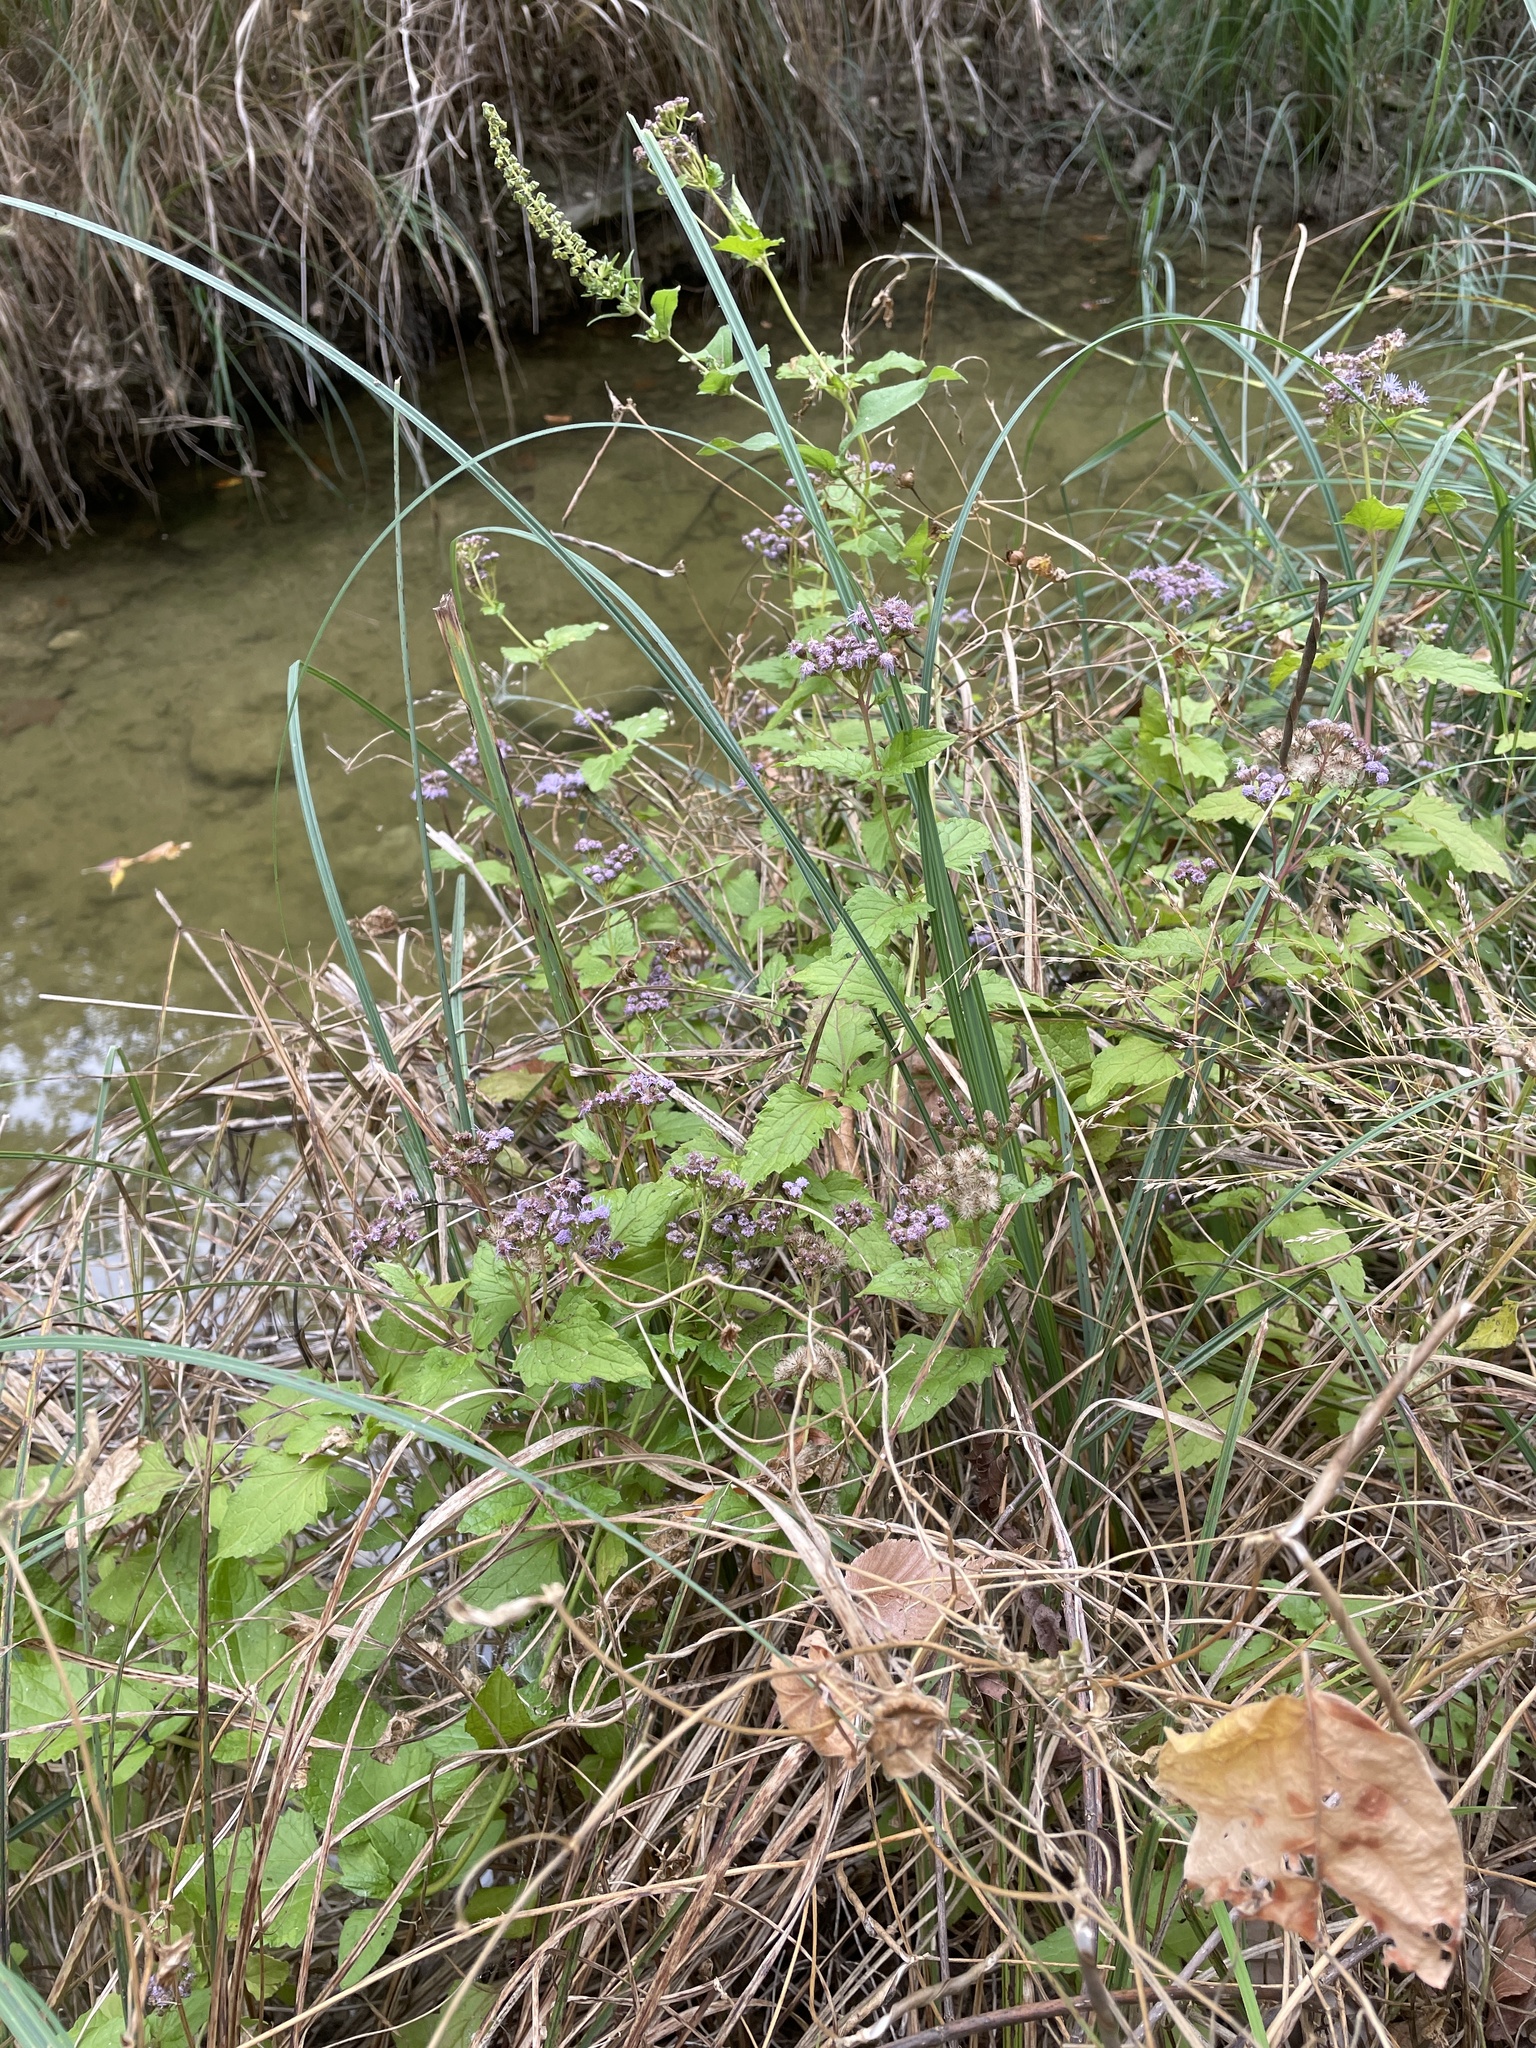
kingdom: Plantae
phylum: Tracheophyta
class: Magnoliopsida
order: Asterales
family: Asteraceae
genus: Conoclinium
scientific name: Conoclinium coelestinum
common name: Blue mistflower
